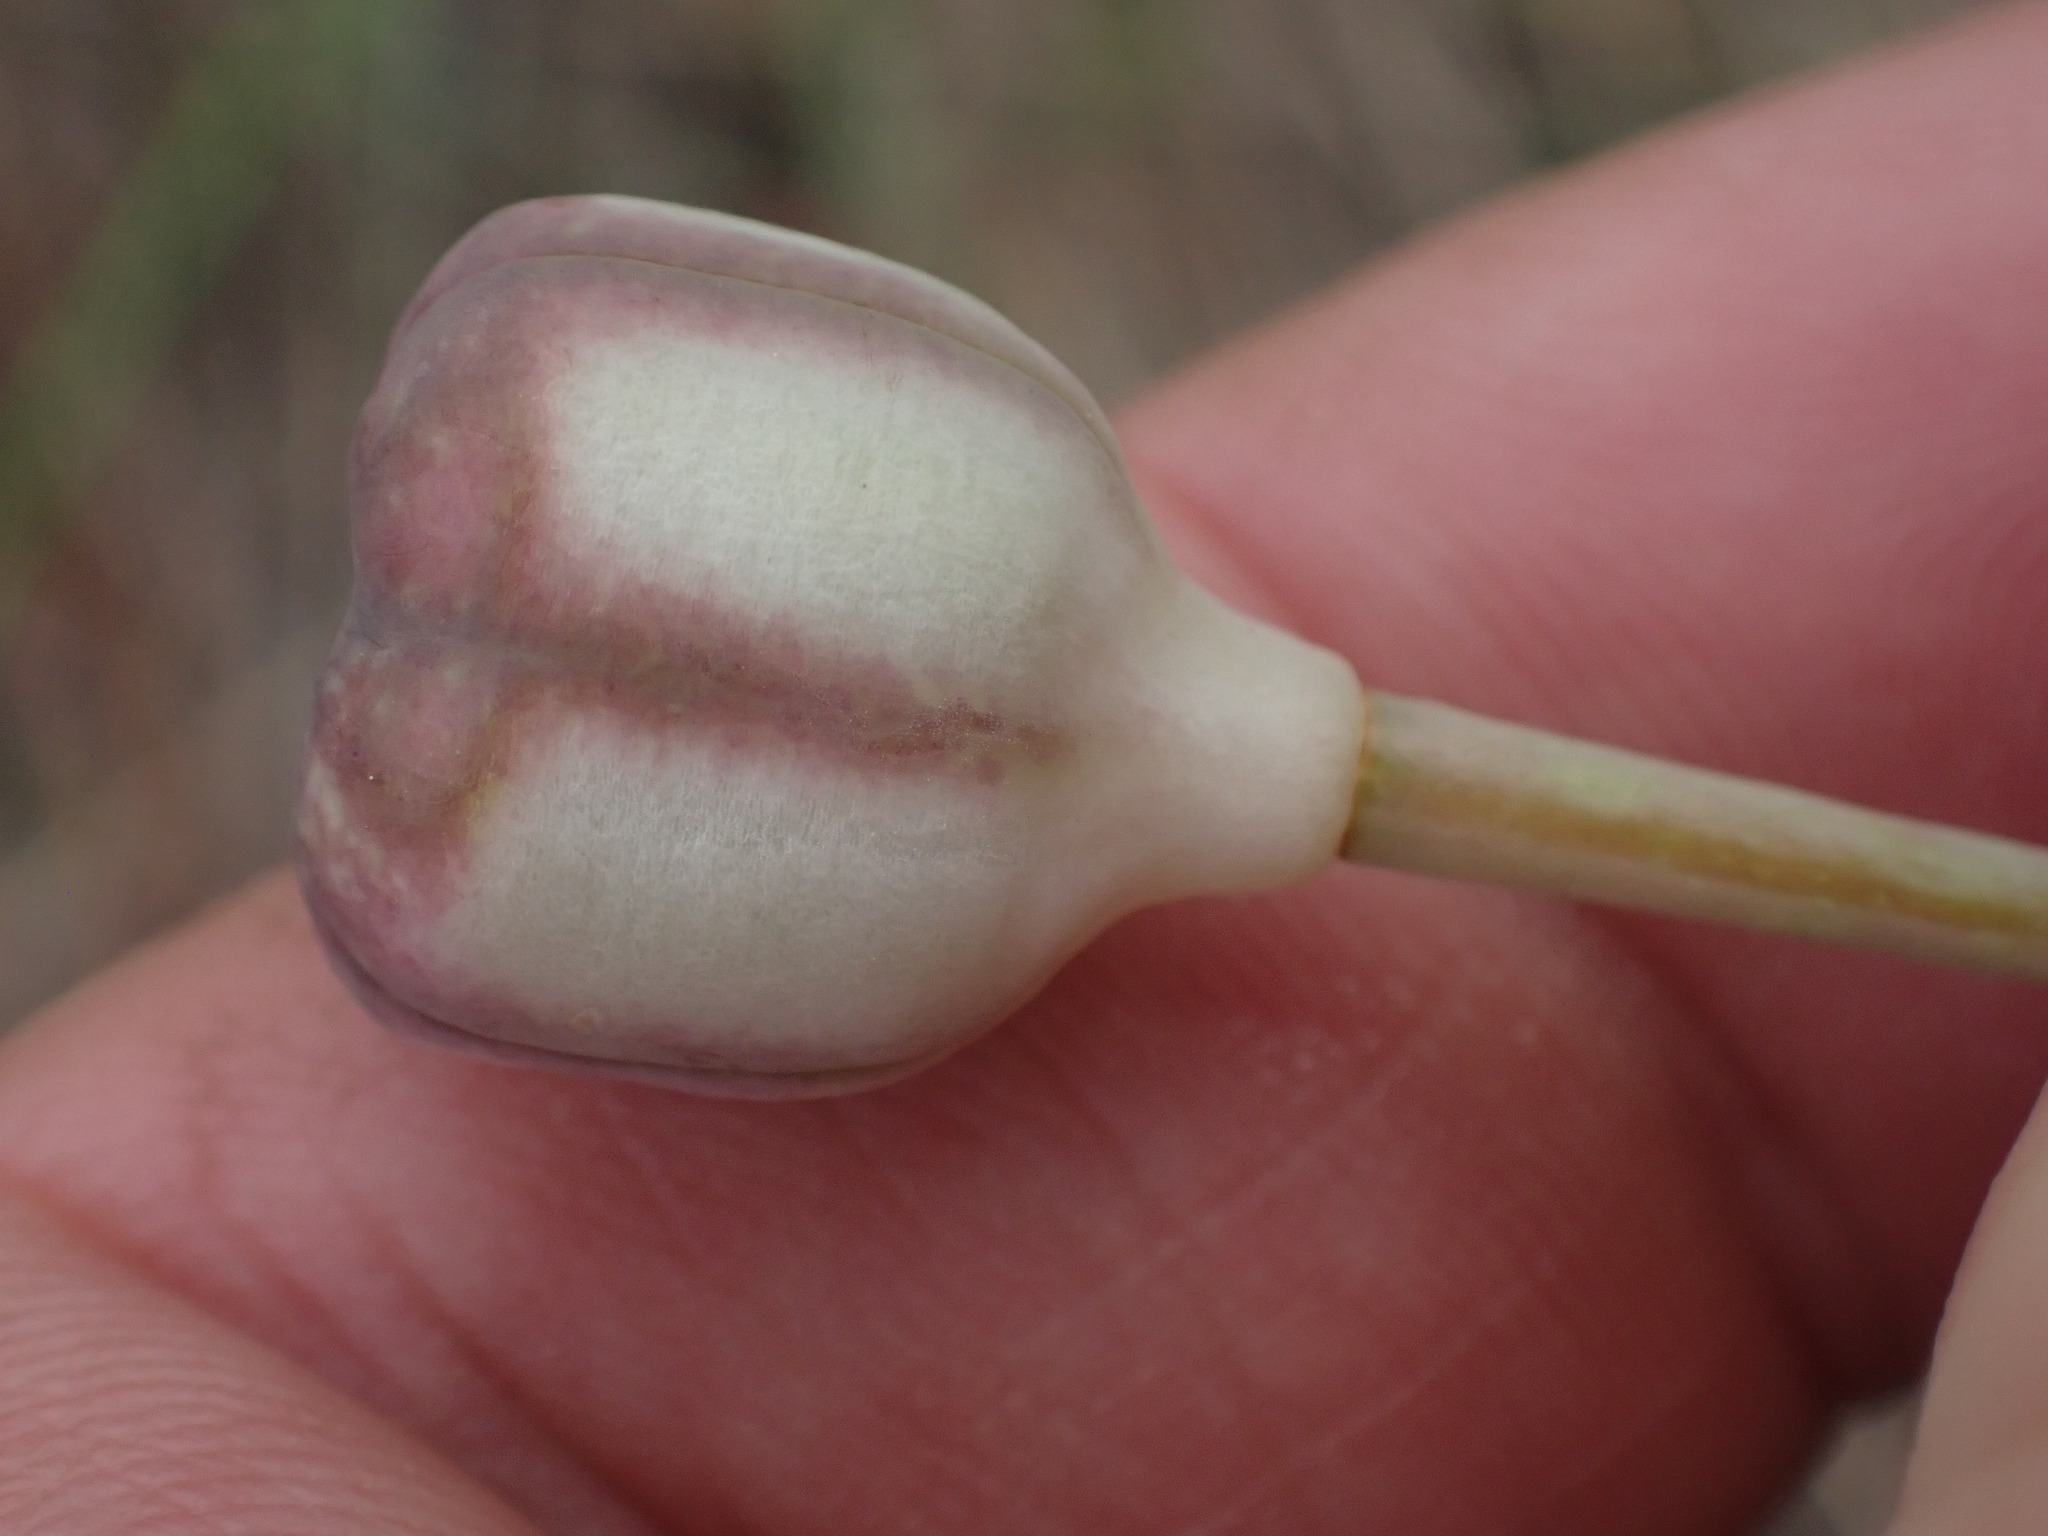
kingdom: Plantae
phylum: Tracheophyta
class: Liliopsida
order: Liliales
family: Liliaceae
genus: Fritillaria
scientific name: Fritillaria pudica
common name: Yellow fritillary
